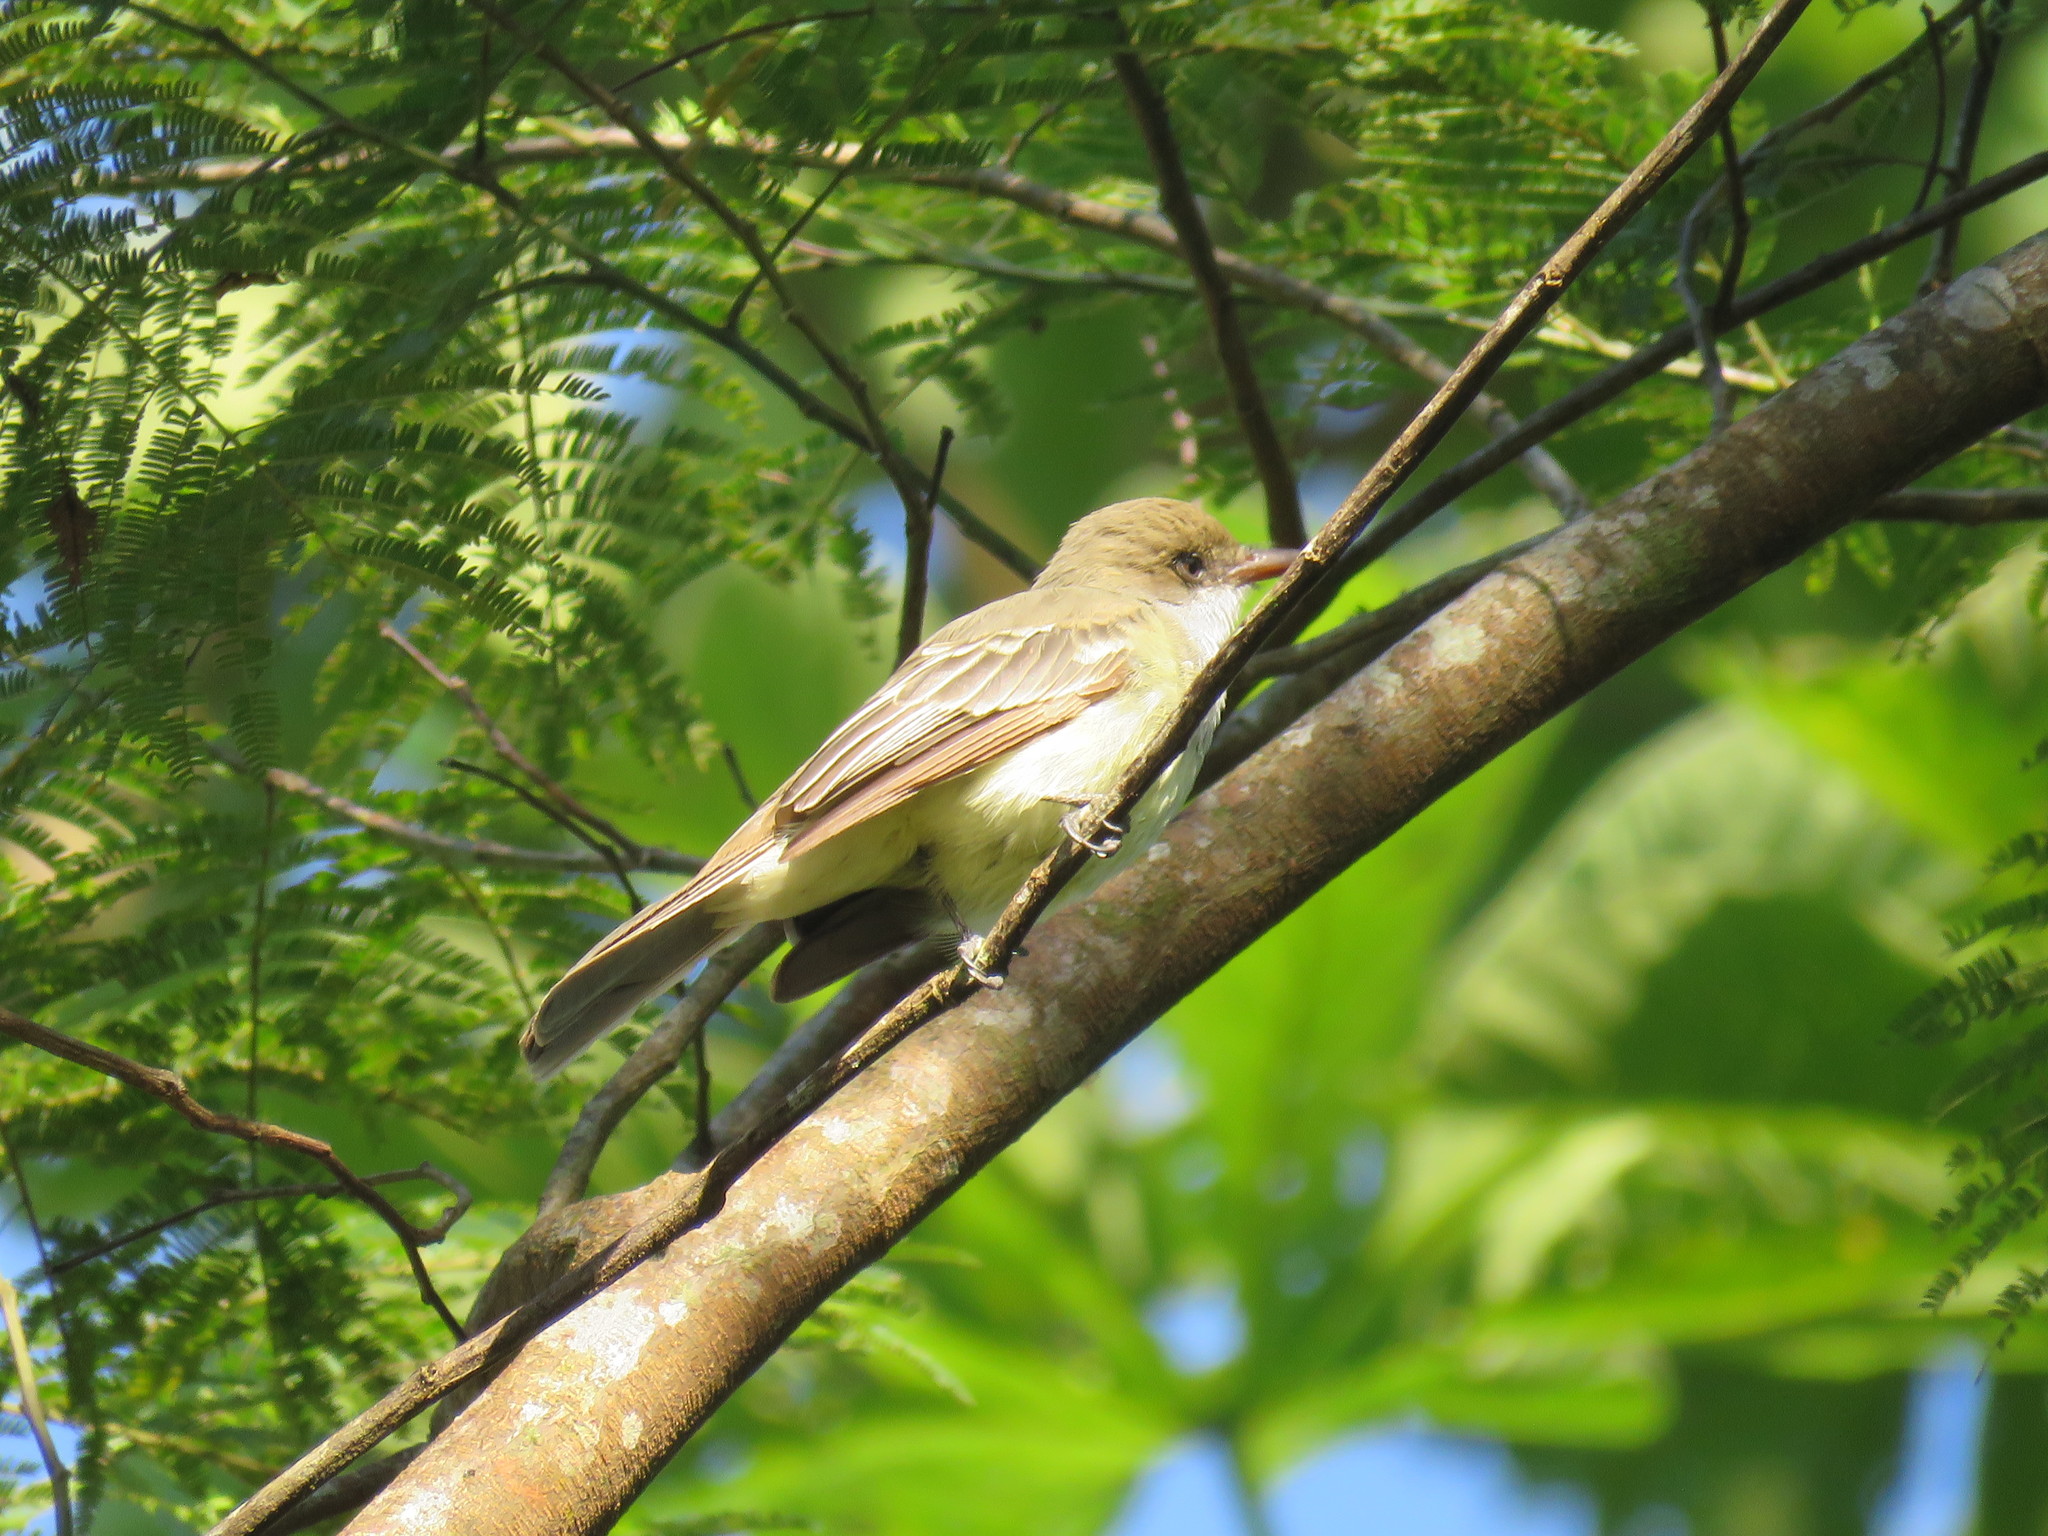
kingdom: Animalia
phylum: Chordata
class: Aves
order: Passeriformes
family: Tyrannidae
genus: Myiarchus
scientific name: Myiarchus tyrannulus
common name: Brown-crested flycatcher
